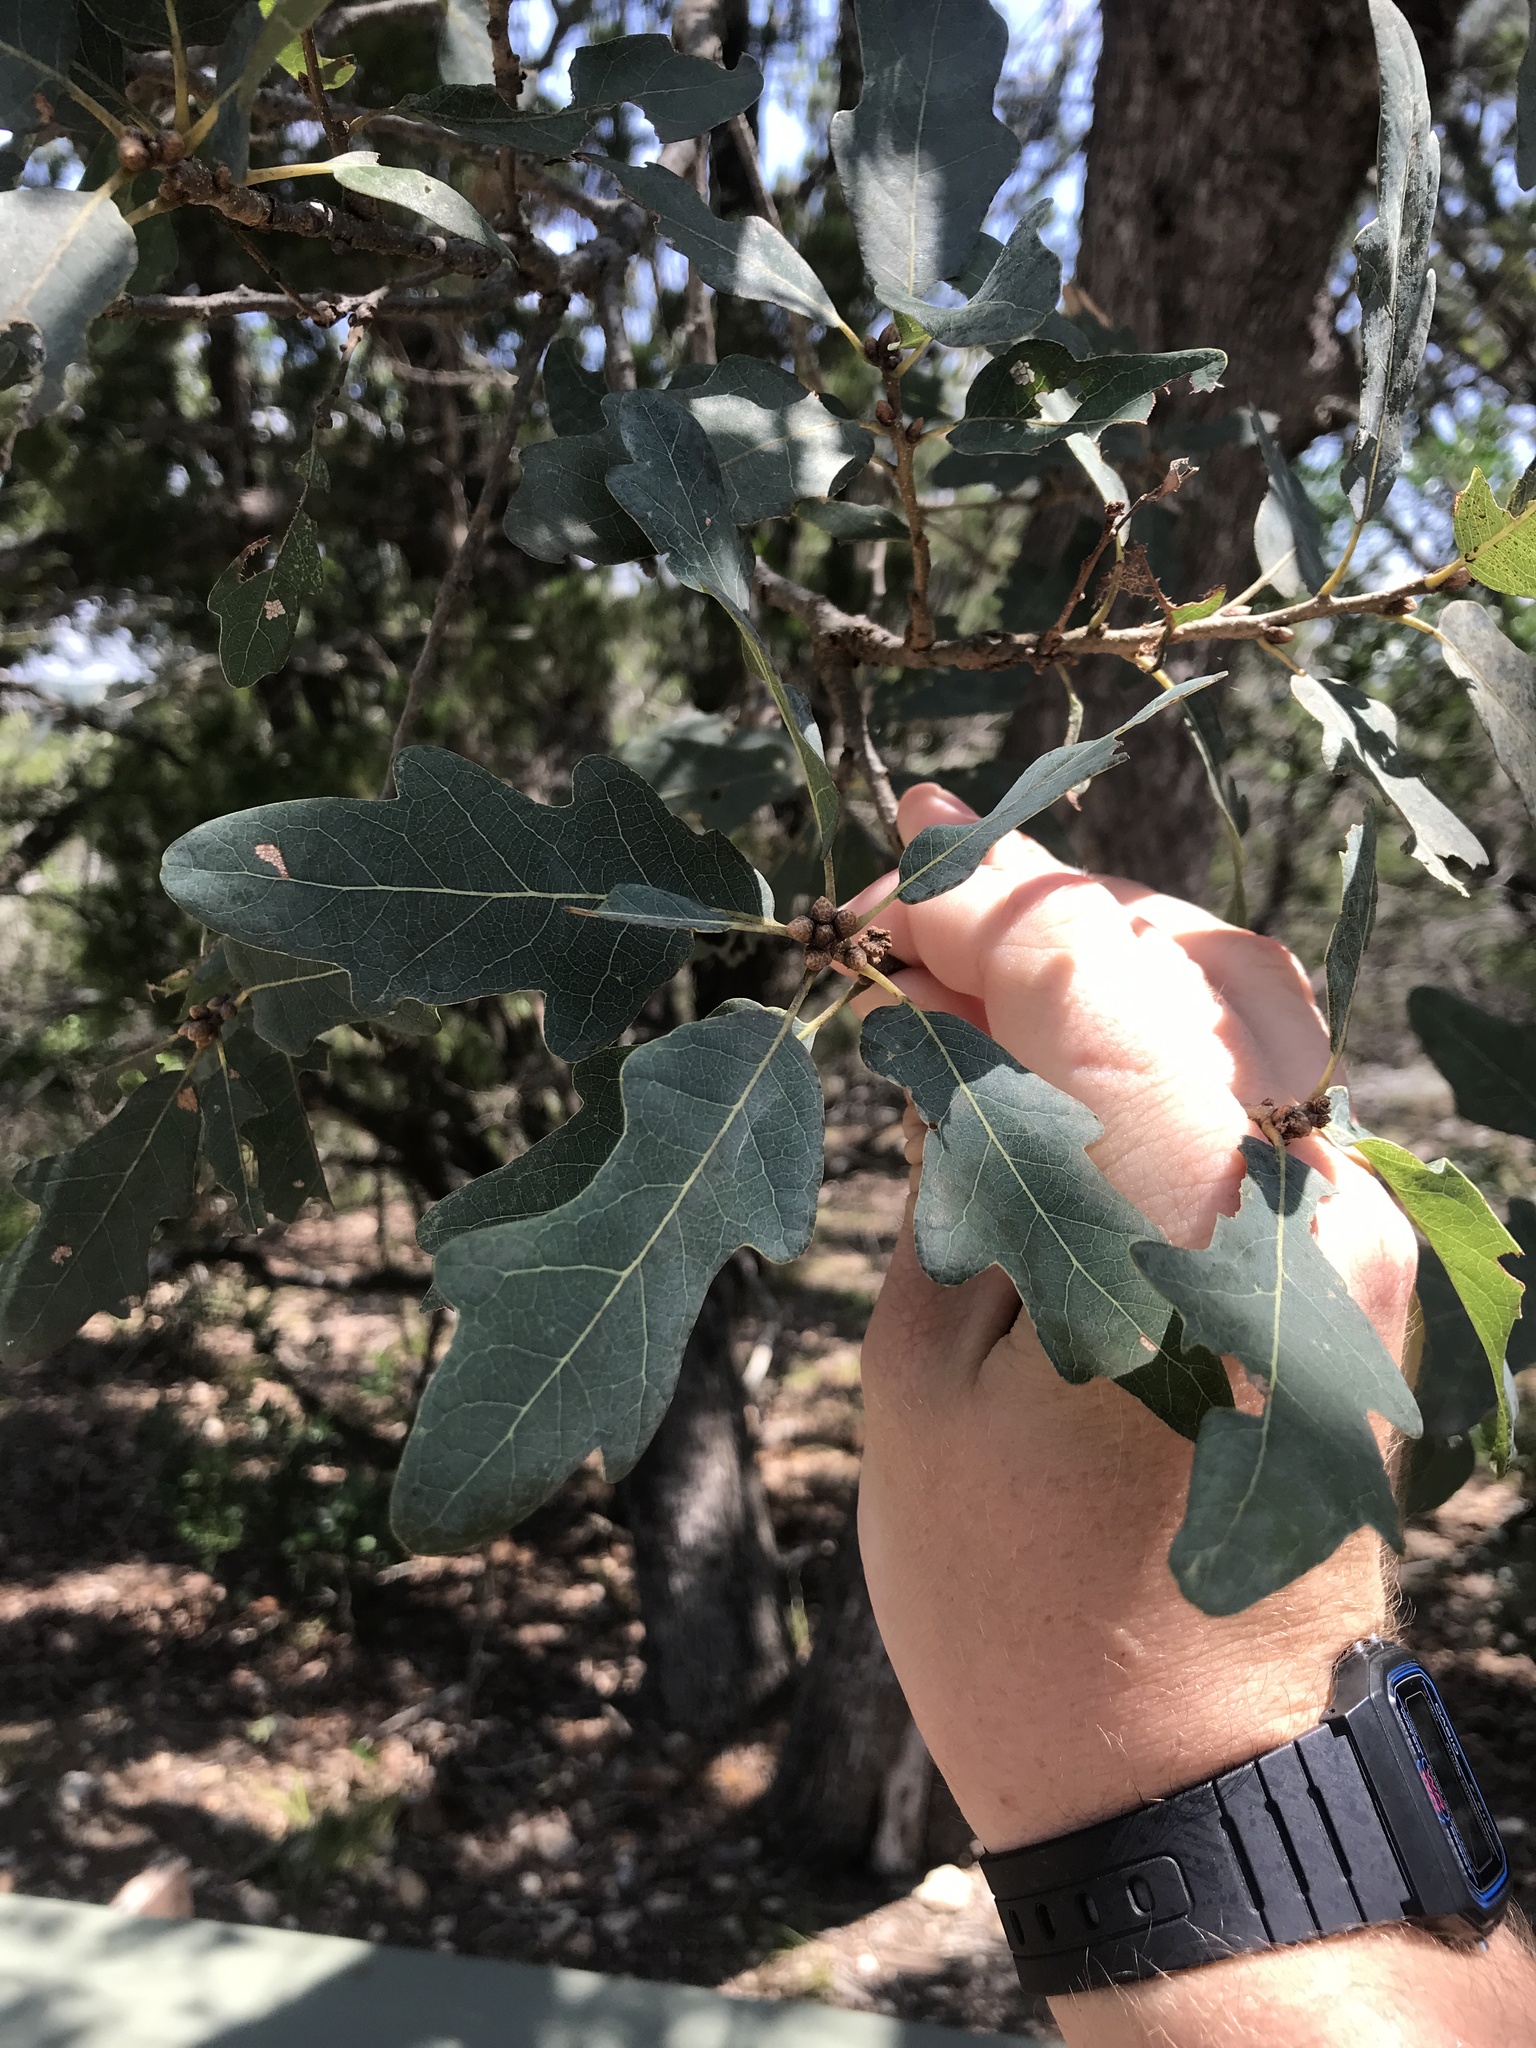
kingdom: Plantae
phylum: Tracheophyta
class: Magnoliopsida
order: Fagales
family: Fagaceae
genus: Quercus
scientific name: Quercus laceyi
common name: Lacey oak
